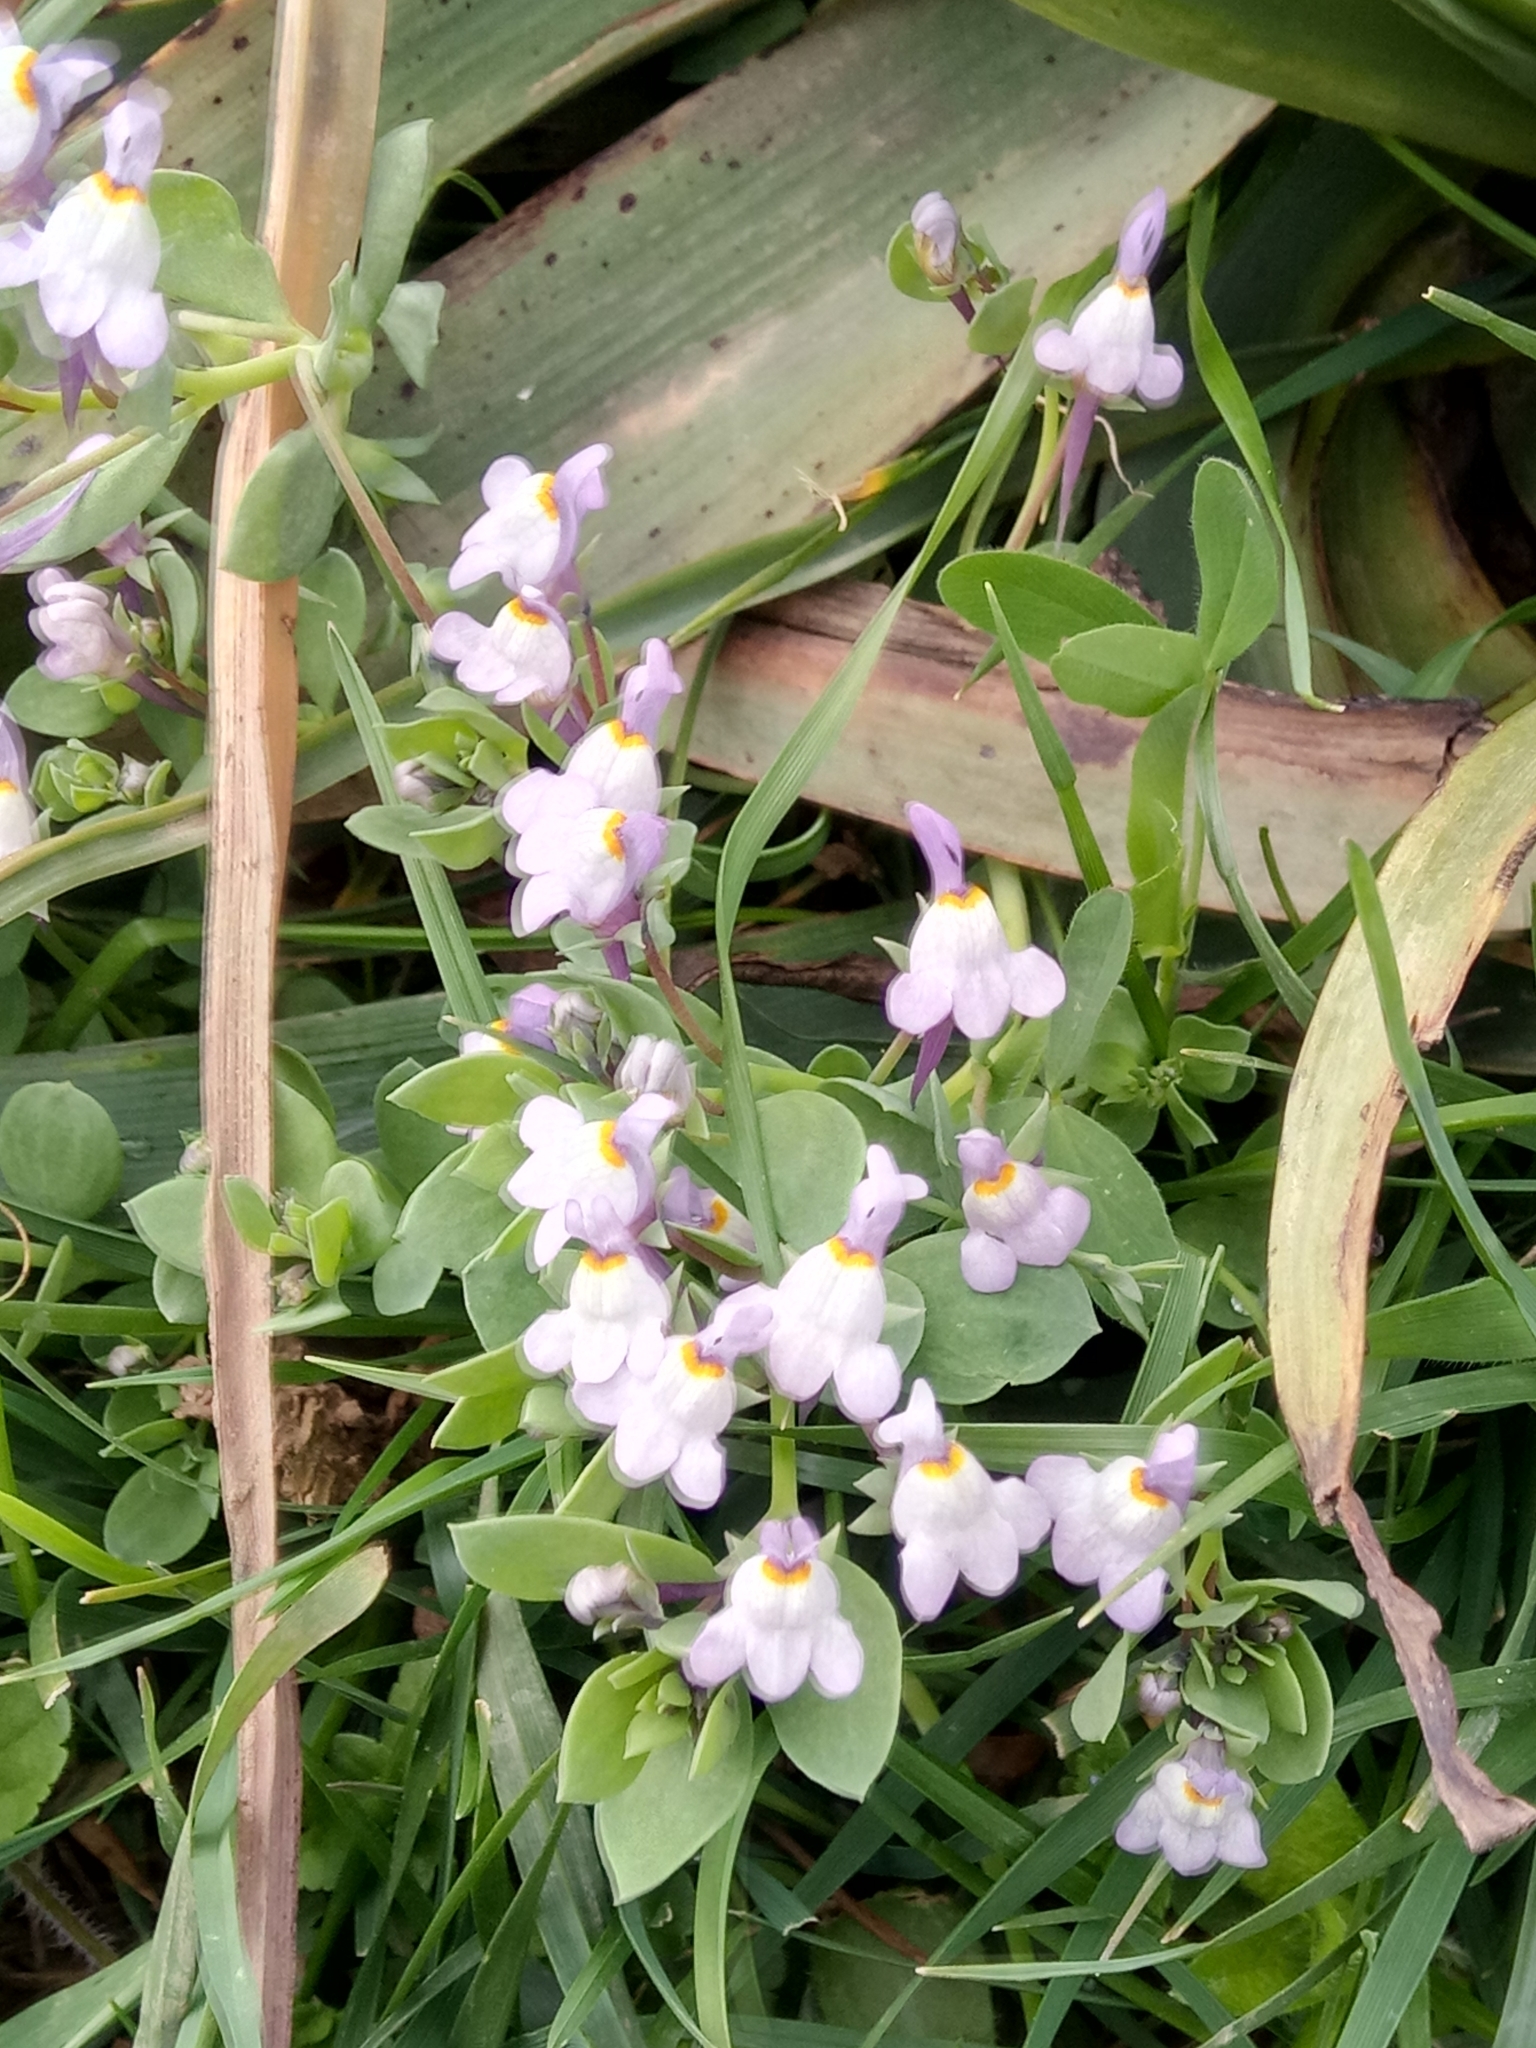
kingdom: Plantae
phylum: Tracheophyta
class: Magnoliopsida
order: Lamiales
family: Plantaginaceae
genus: Linaria
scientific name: Linaria reflexa
